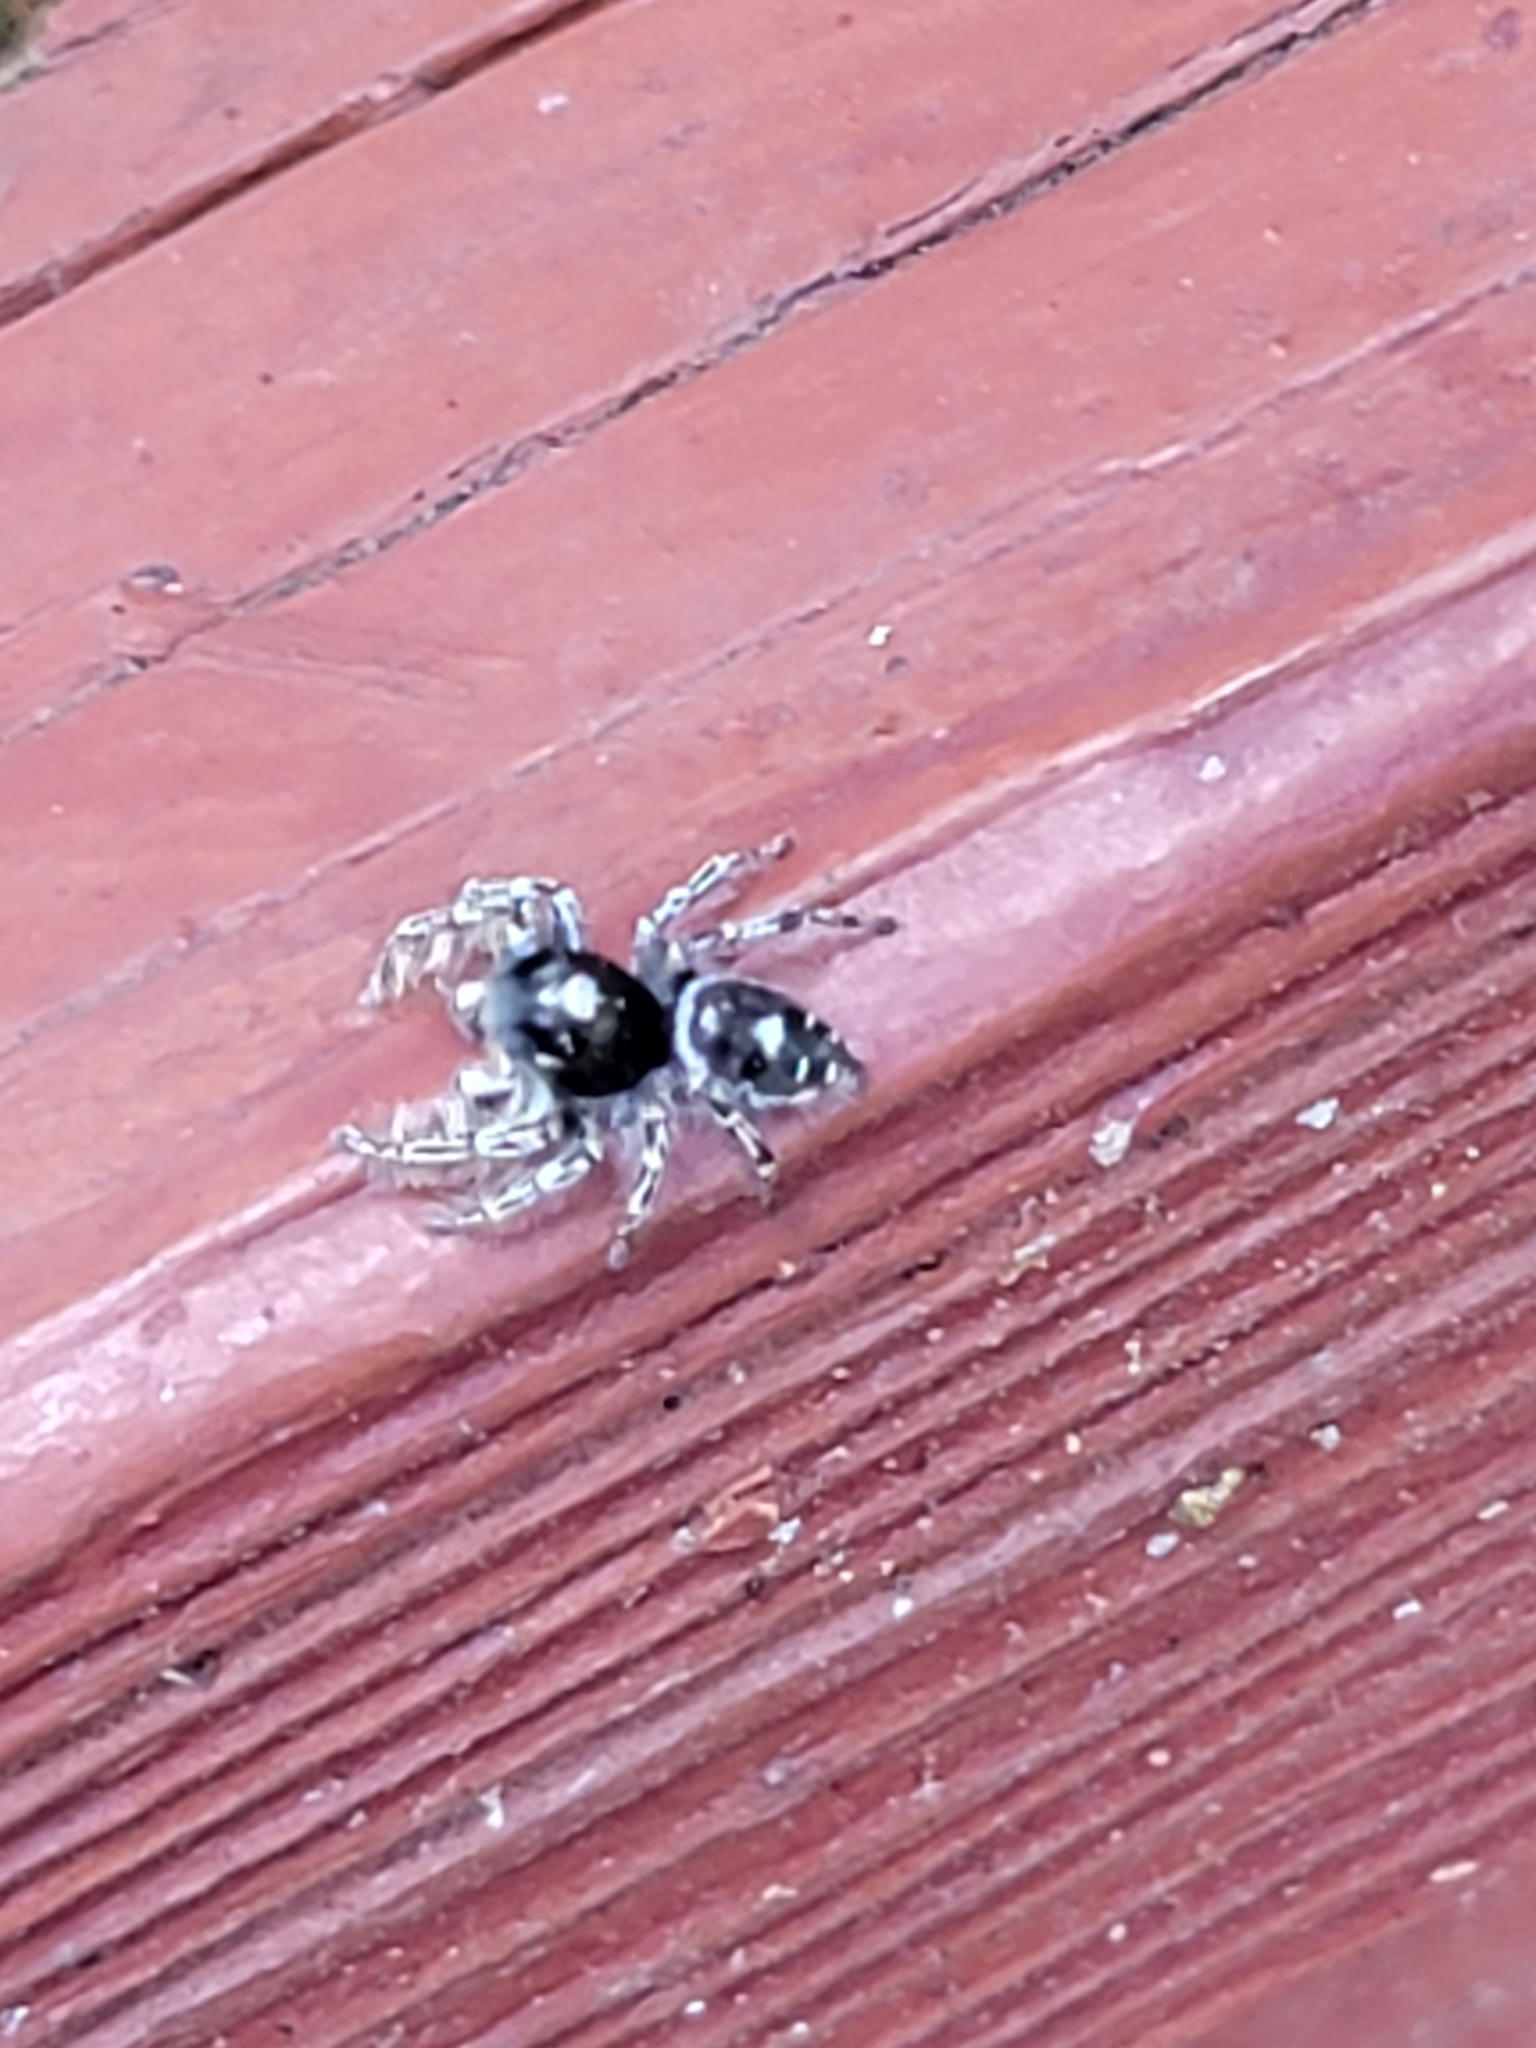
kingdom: Animalia
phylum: Arthropoda
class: Arachnida
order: Araneae
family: Salticidae
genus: Phidippus
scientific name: Phidippus putnami
